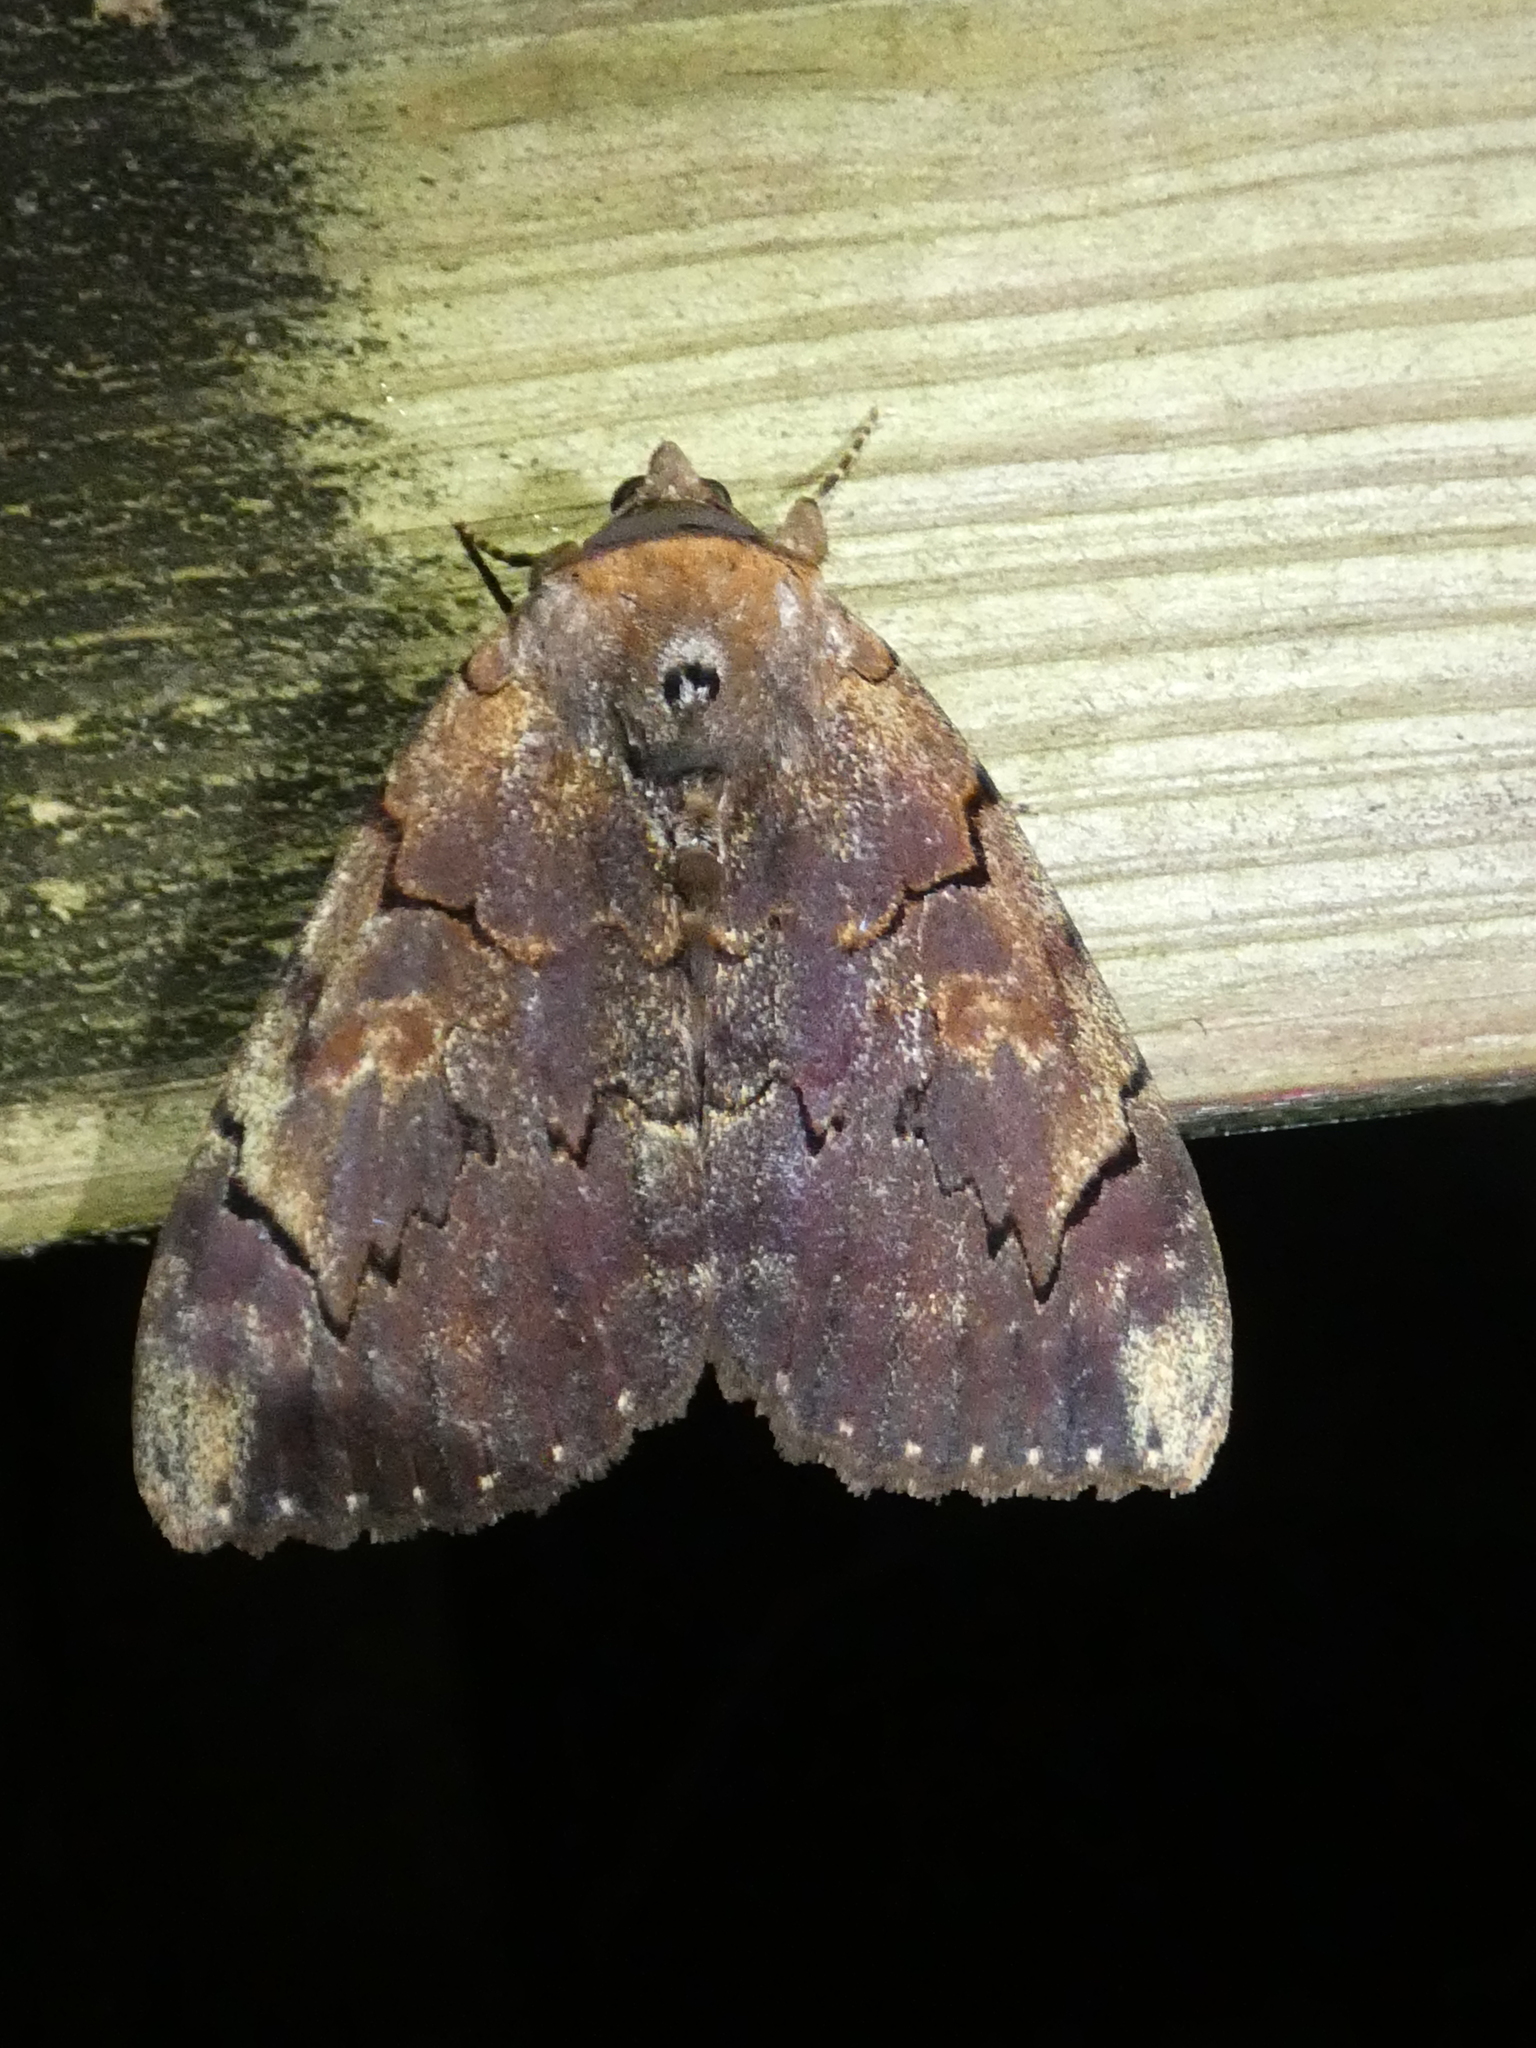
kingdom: Animalia
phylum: Arthropoda
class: Insecta
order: Lepidoptera
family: Erebidae
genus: Catocala
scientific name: Catocala carissima
